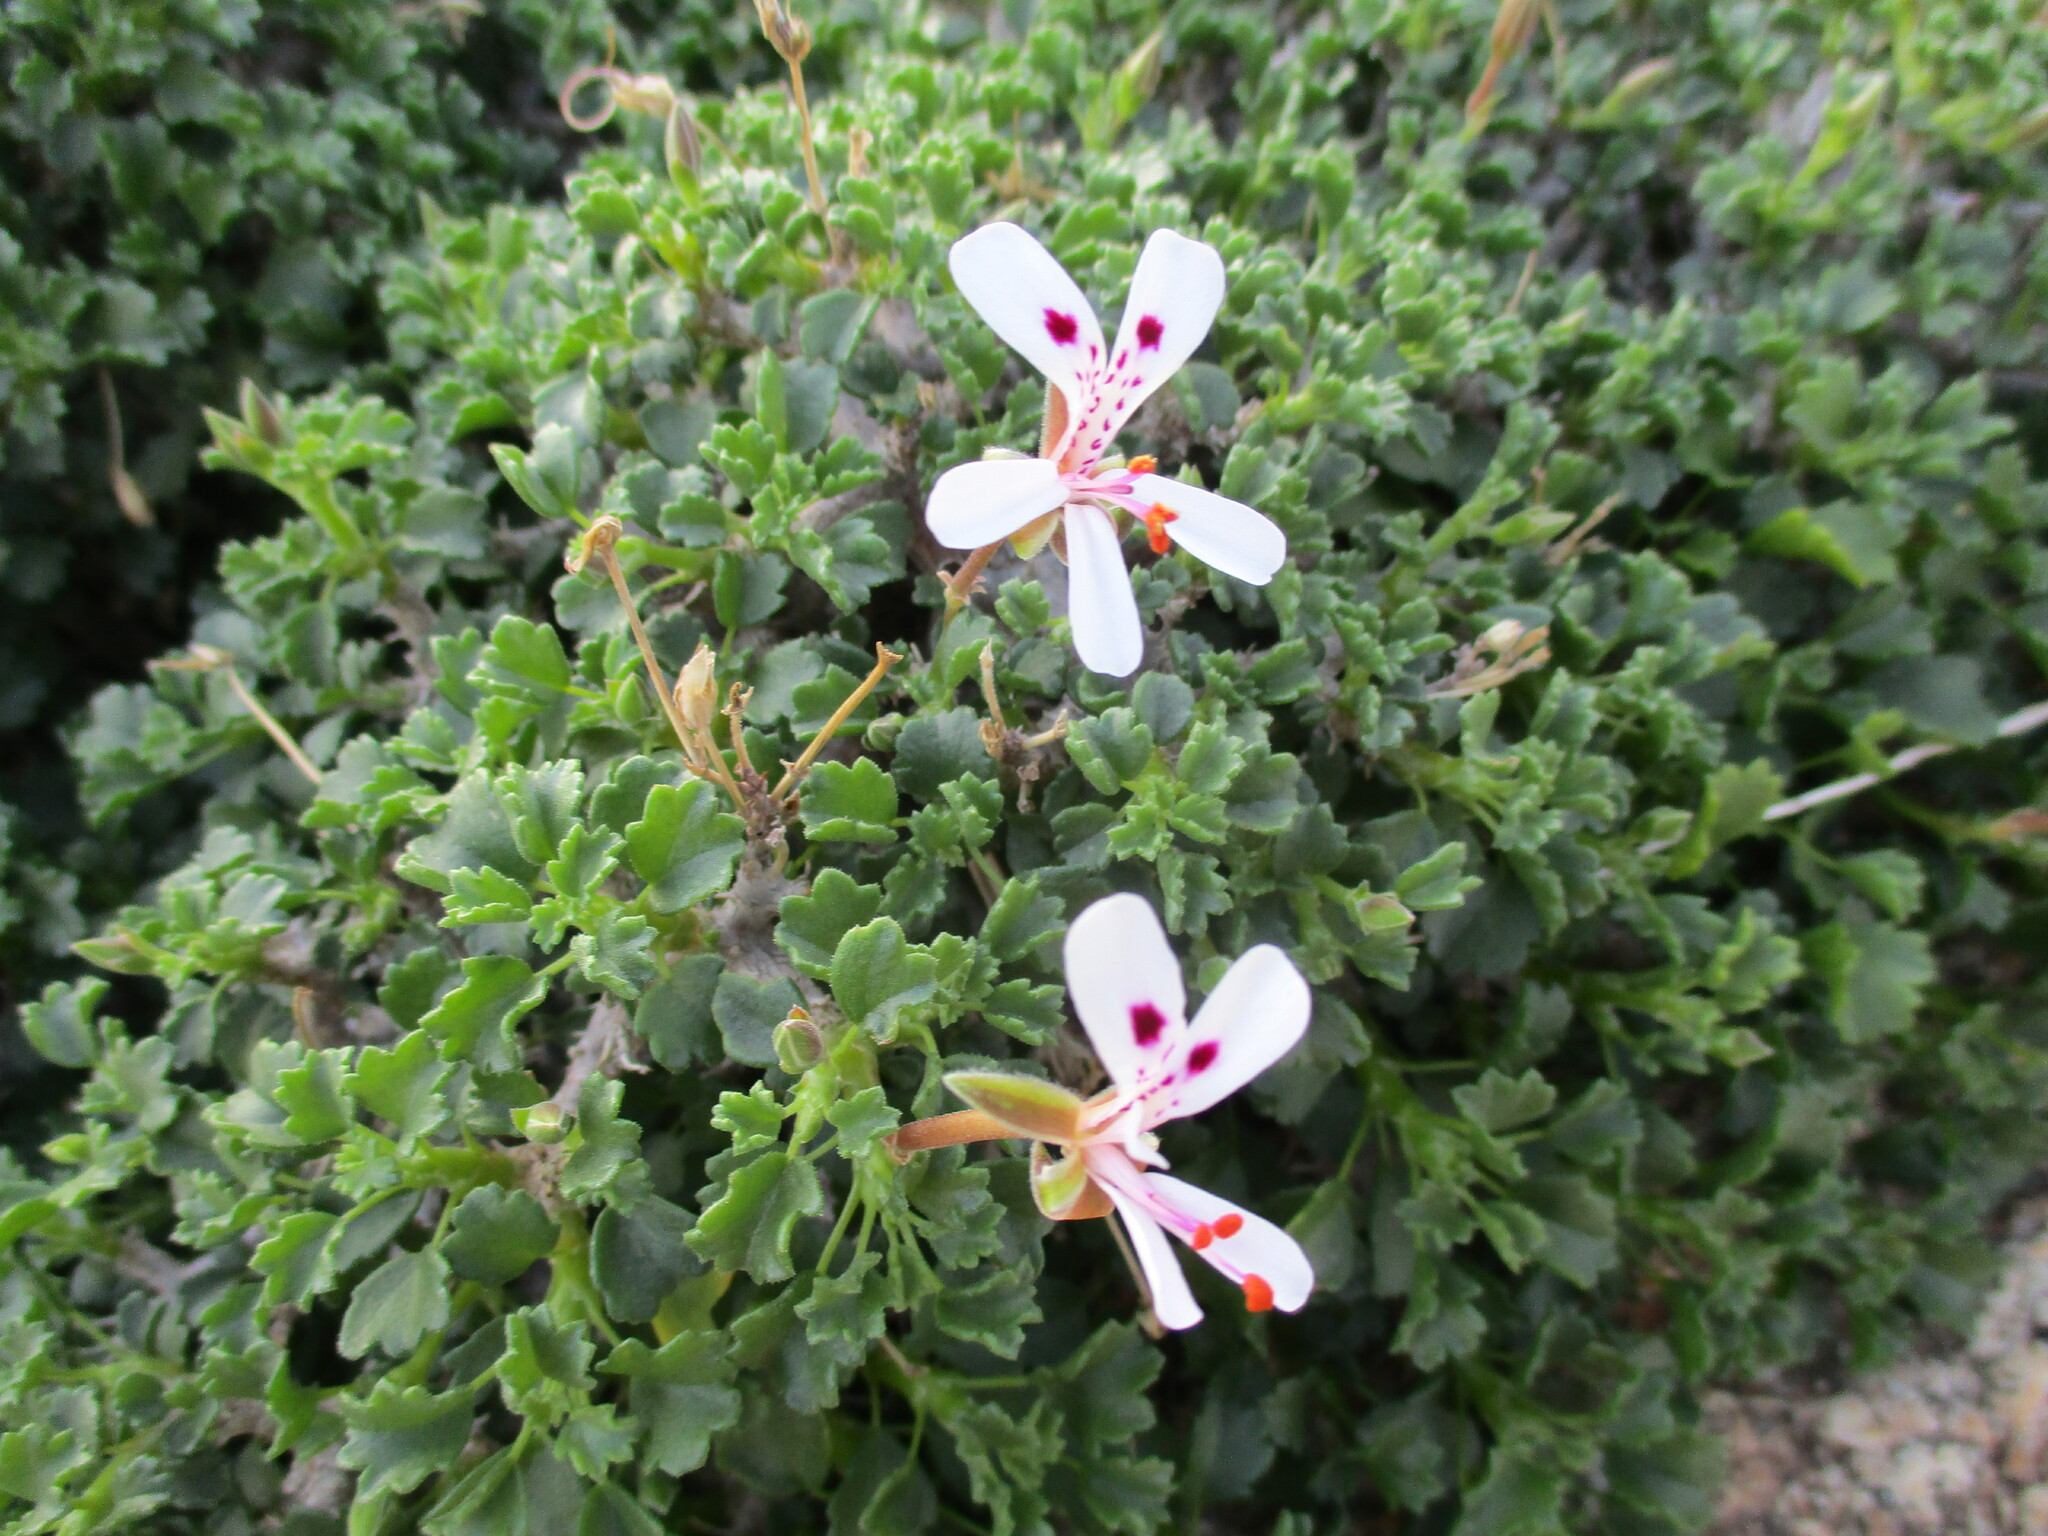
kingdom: Plantae
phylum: Tracheophyta
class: Magnoliopsida
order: Geraniales
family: Geraniaceae
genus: Pelargonium
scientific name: Pelargonium xerophyton
